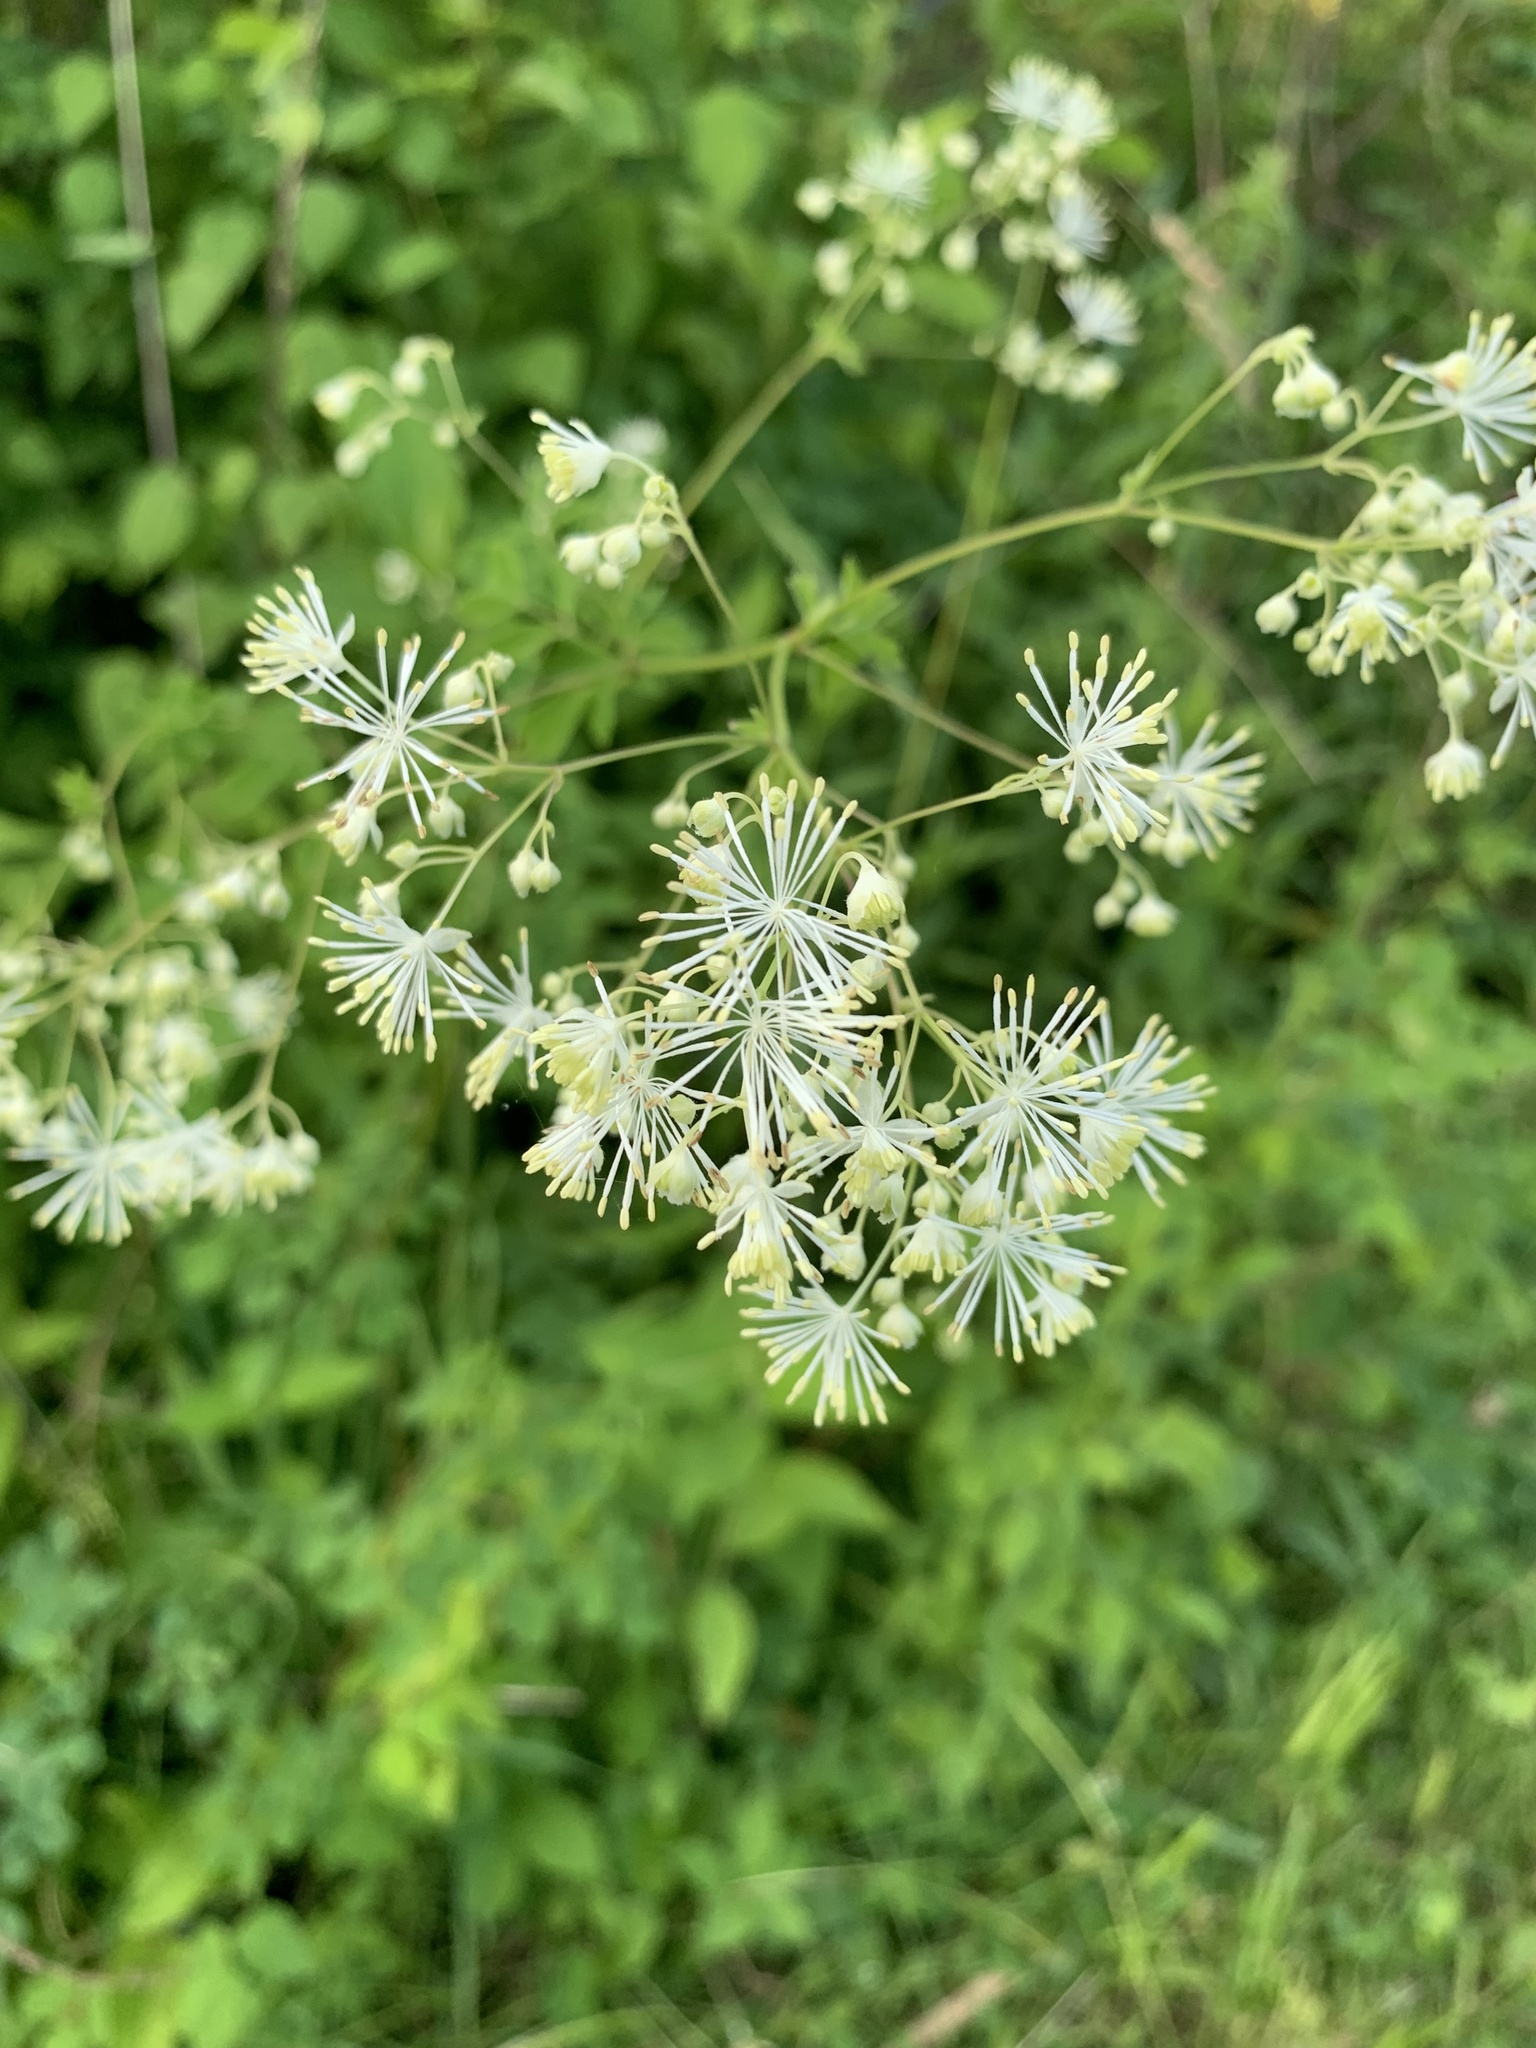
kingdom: Plantae
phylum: Tracheophyta
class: Magnoliopsida
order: Ranunculales
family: Ranunculaceae
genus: Thalictrum
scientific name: Thalictrum pubescens
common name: King-of-the-meadow
